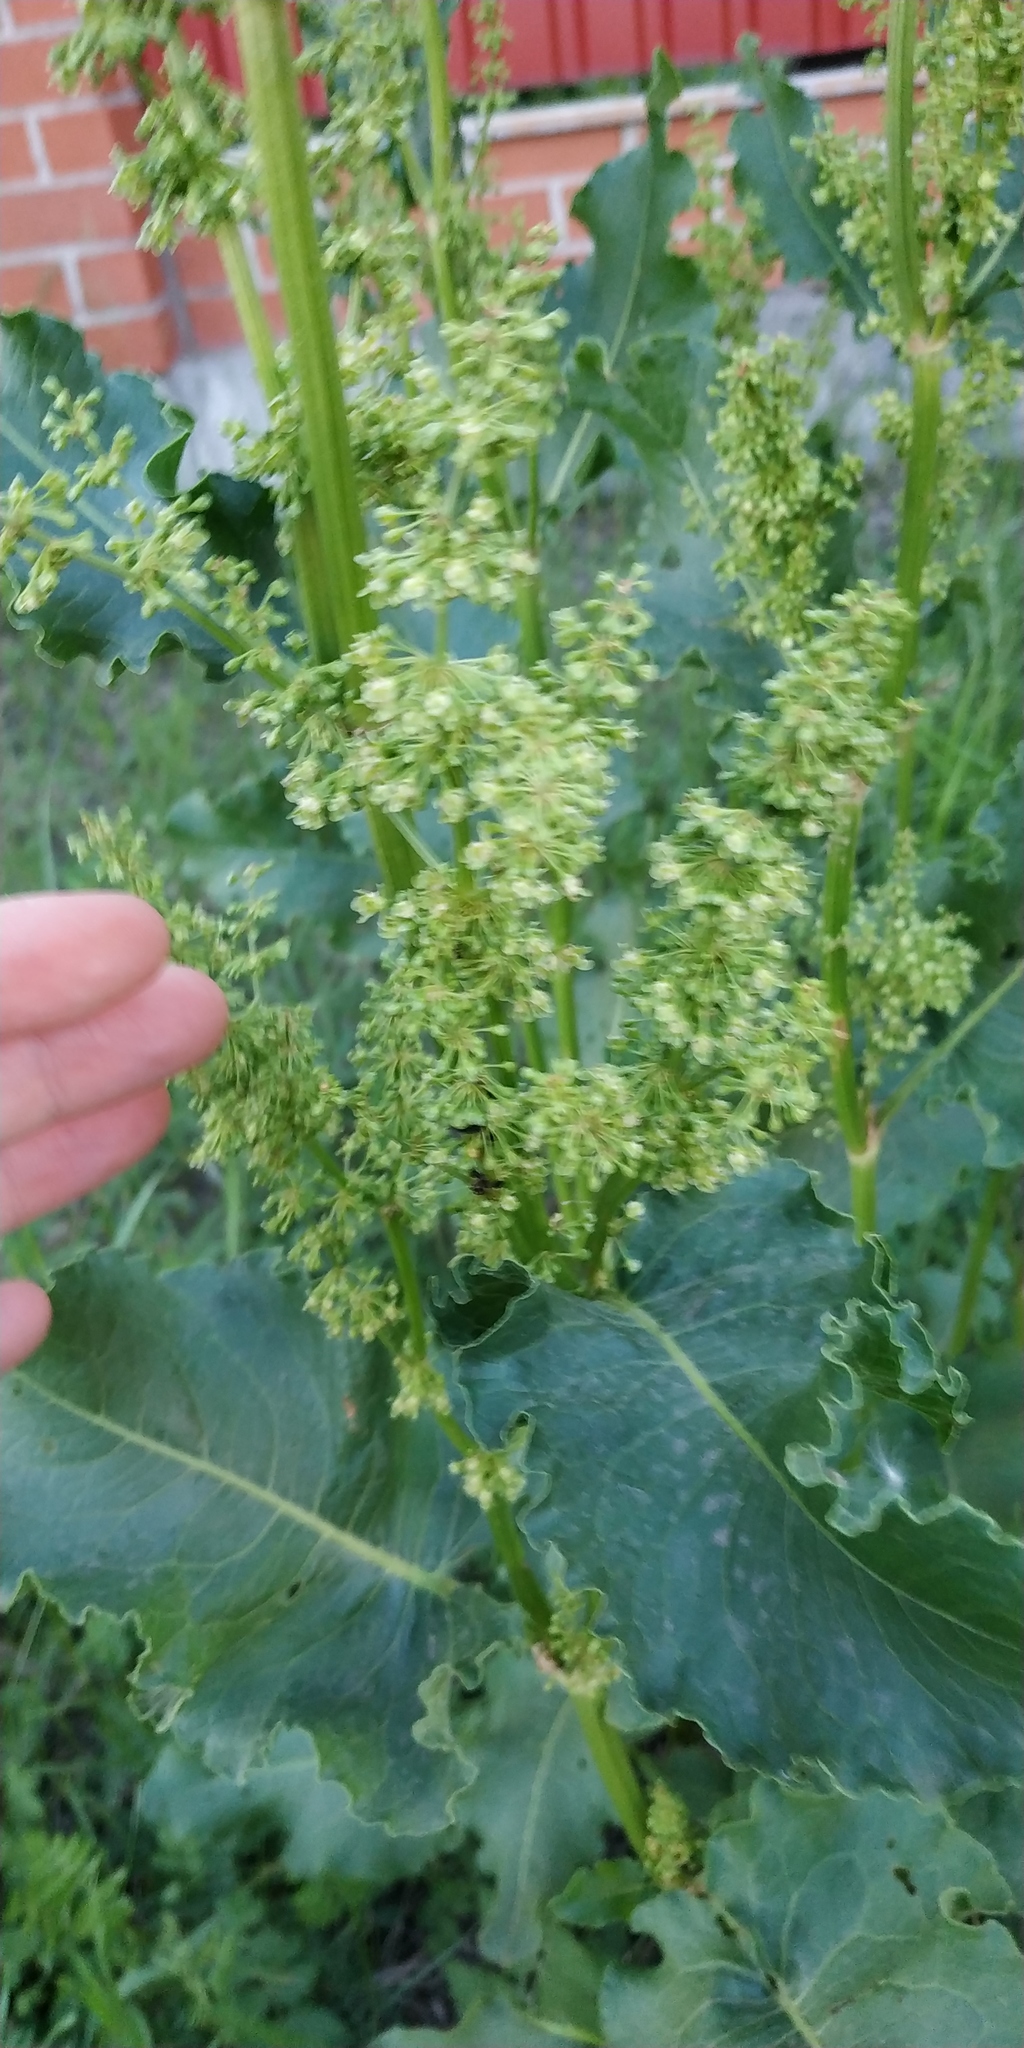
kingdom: Plantae
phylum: Tracheophyta
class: Magnoliopsida
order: Caryophyllales
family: Polygonaceae
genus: Rumex
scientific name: Rumex confertus
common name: Russian dock
